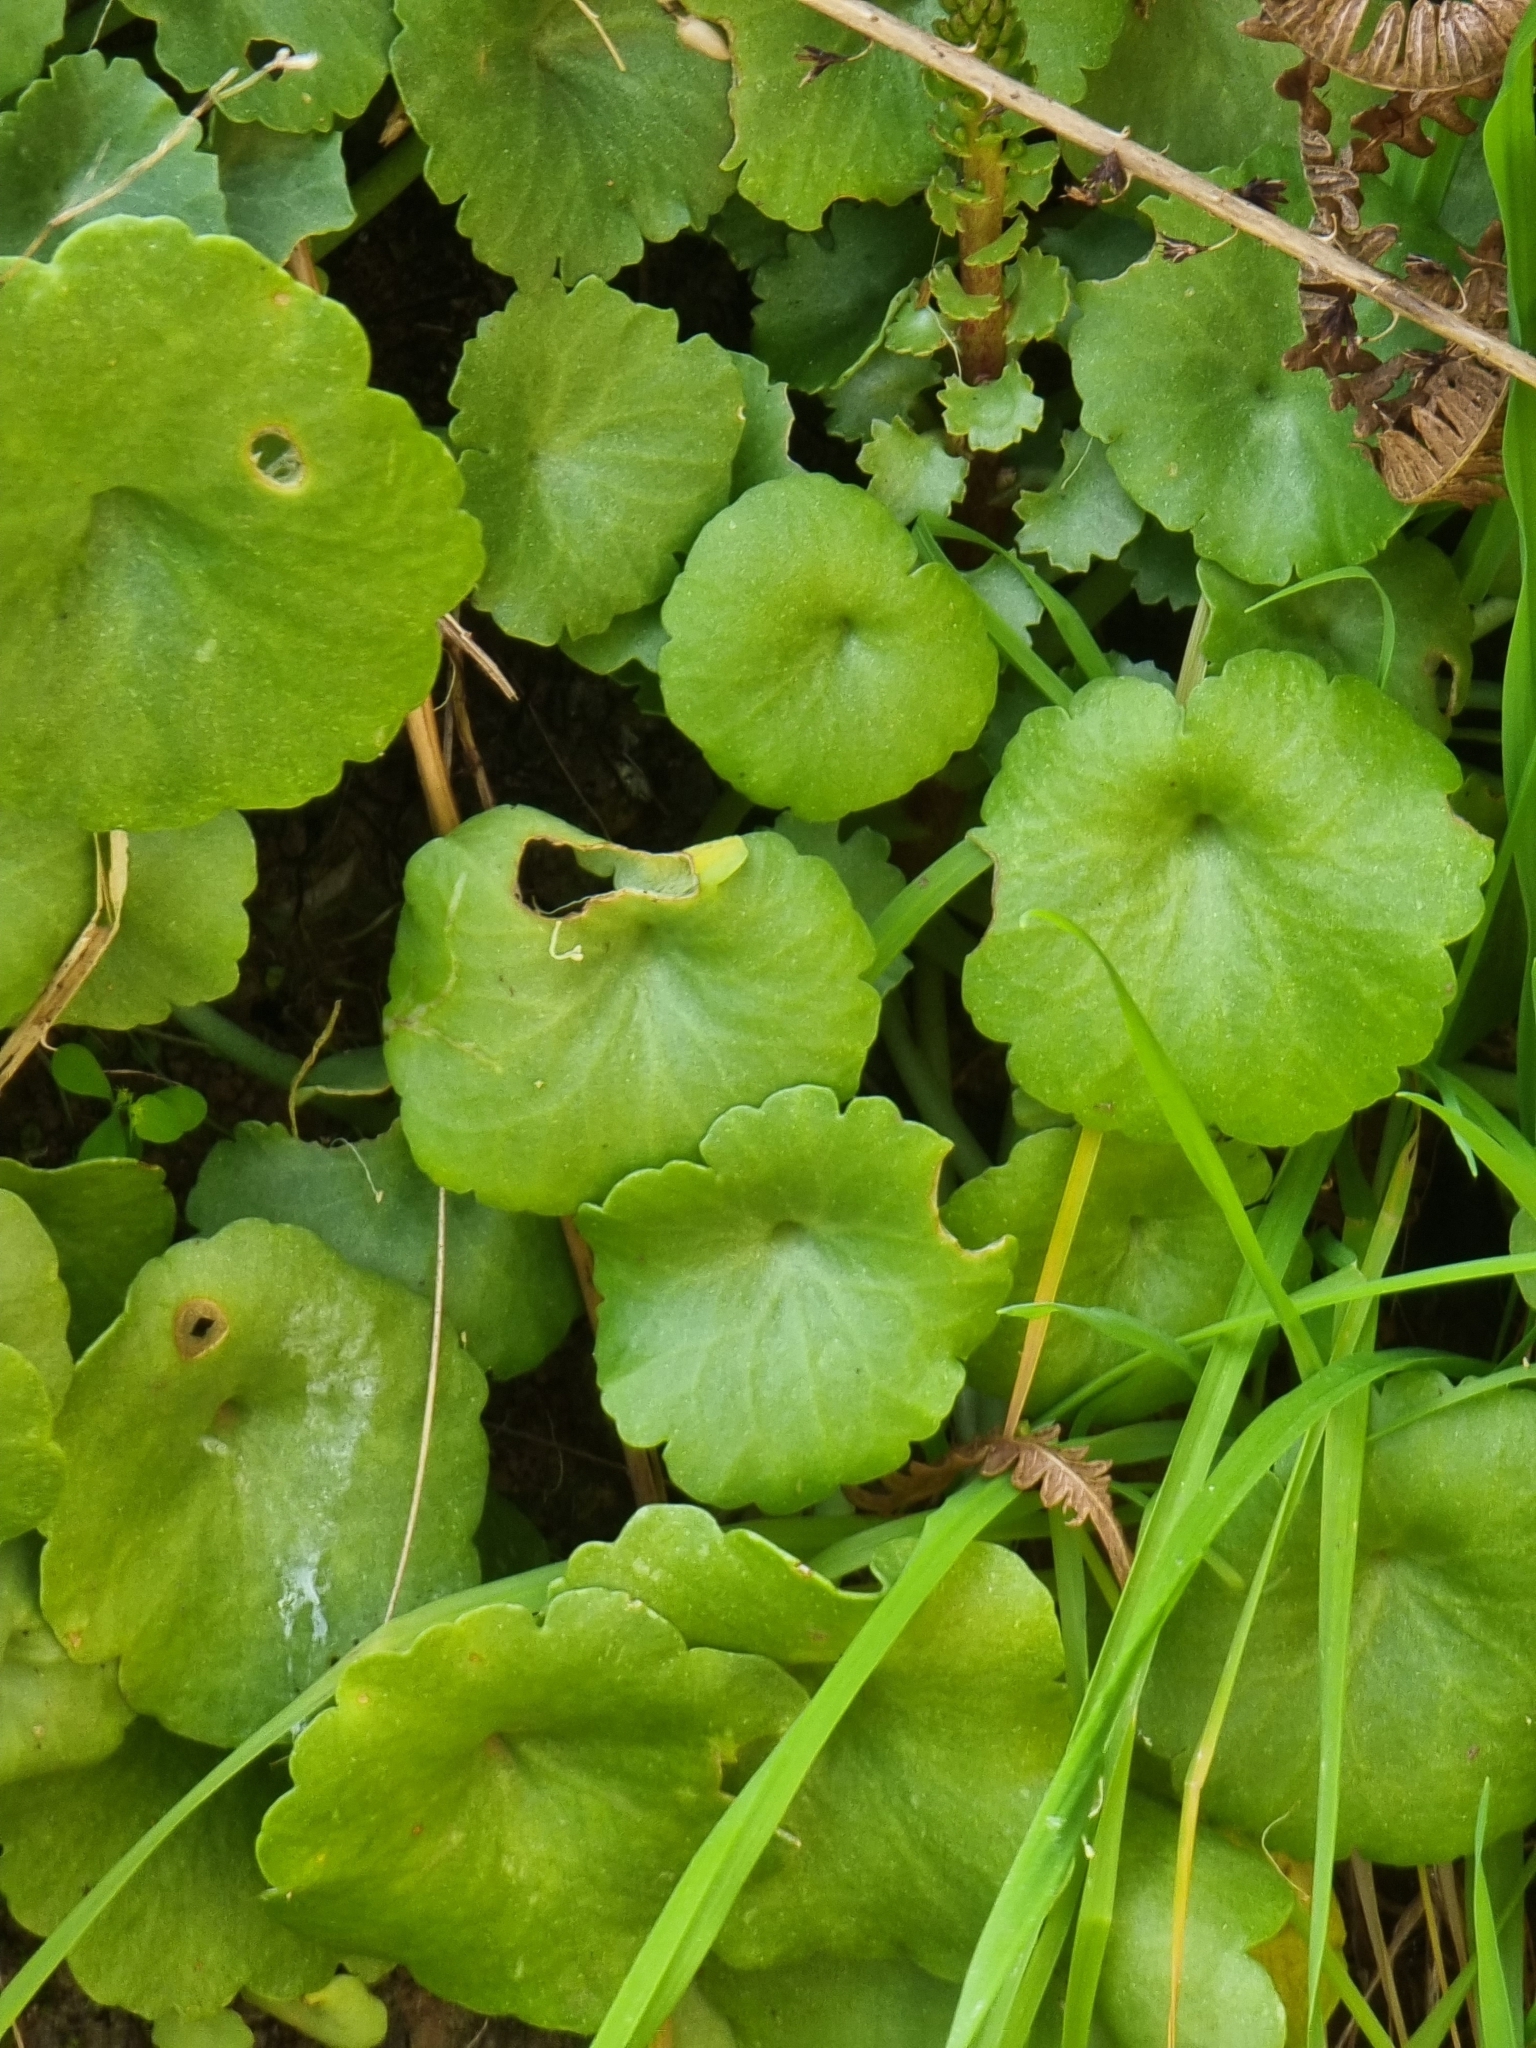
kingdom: Plantae
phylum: Tracheophyta
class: Magnoliopsida
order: Saxifragales
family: Crassulaceae
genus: Umbilicus
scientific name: Umbilicus rupestris
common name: Navelwort
